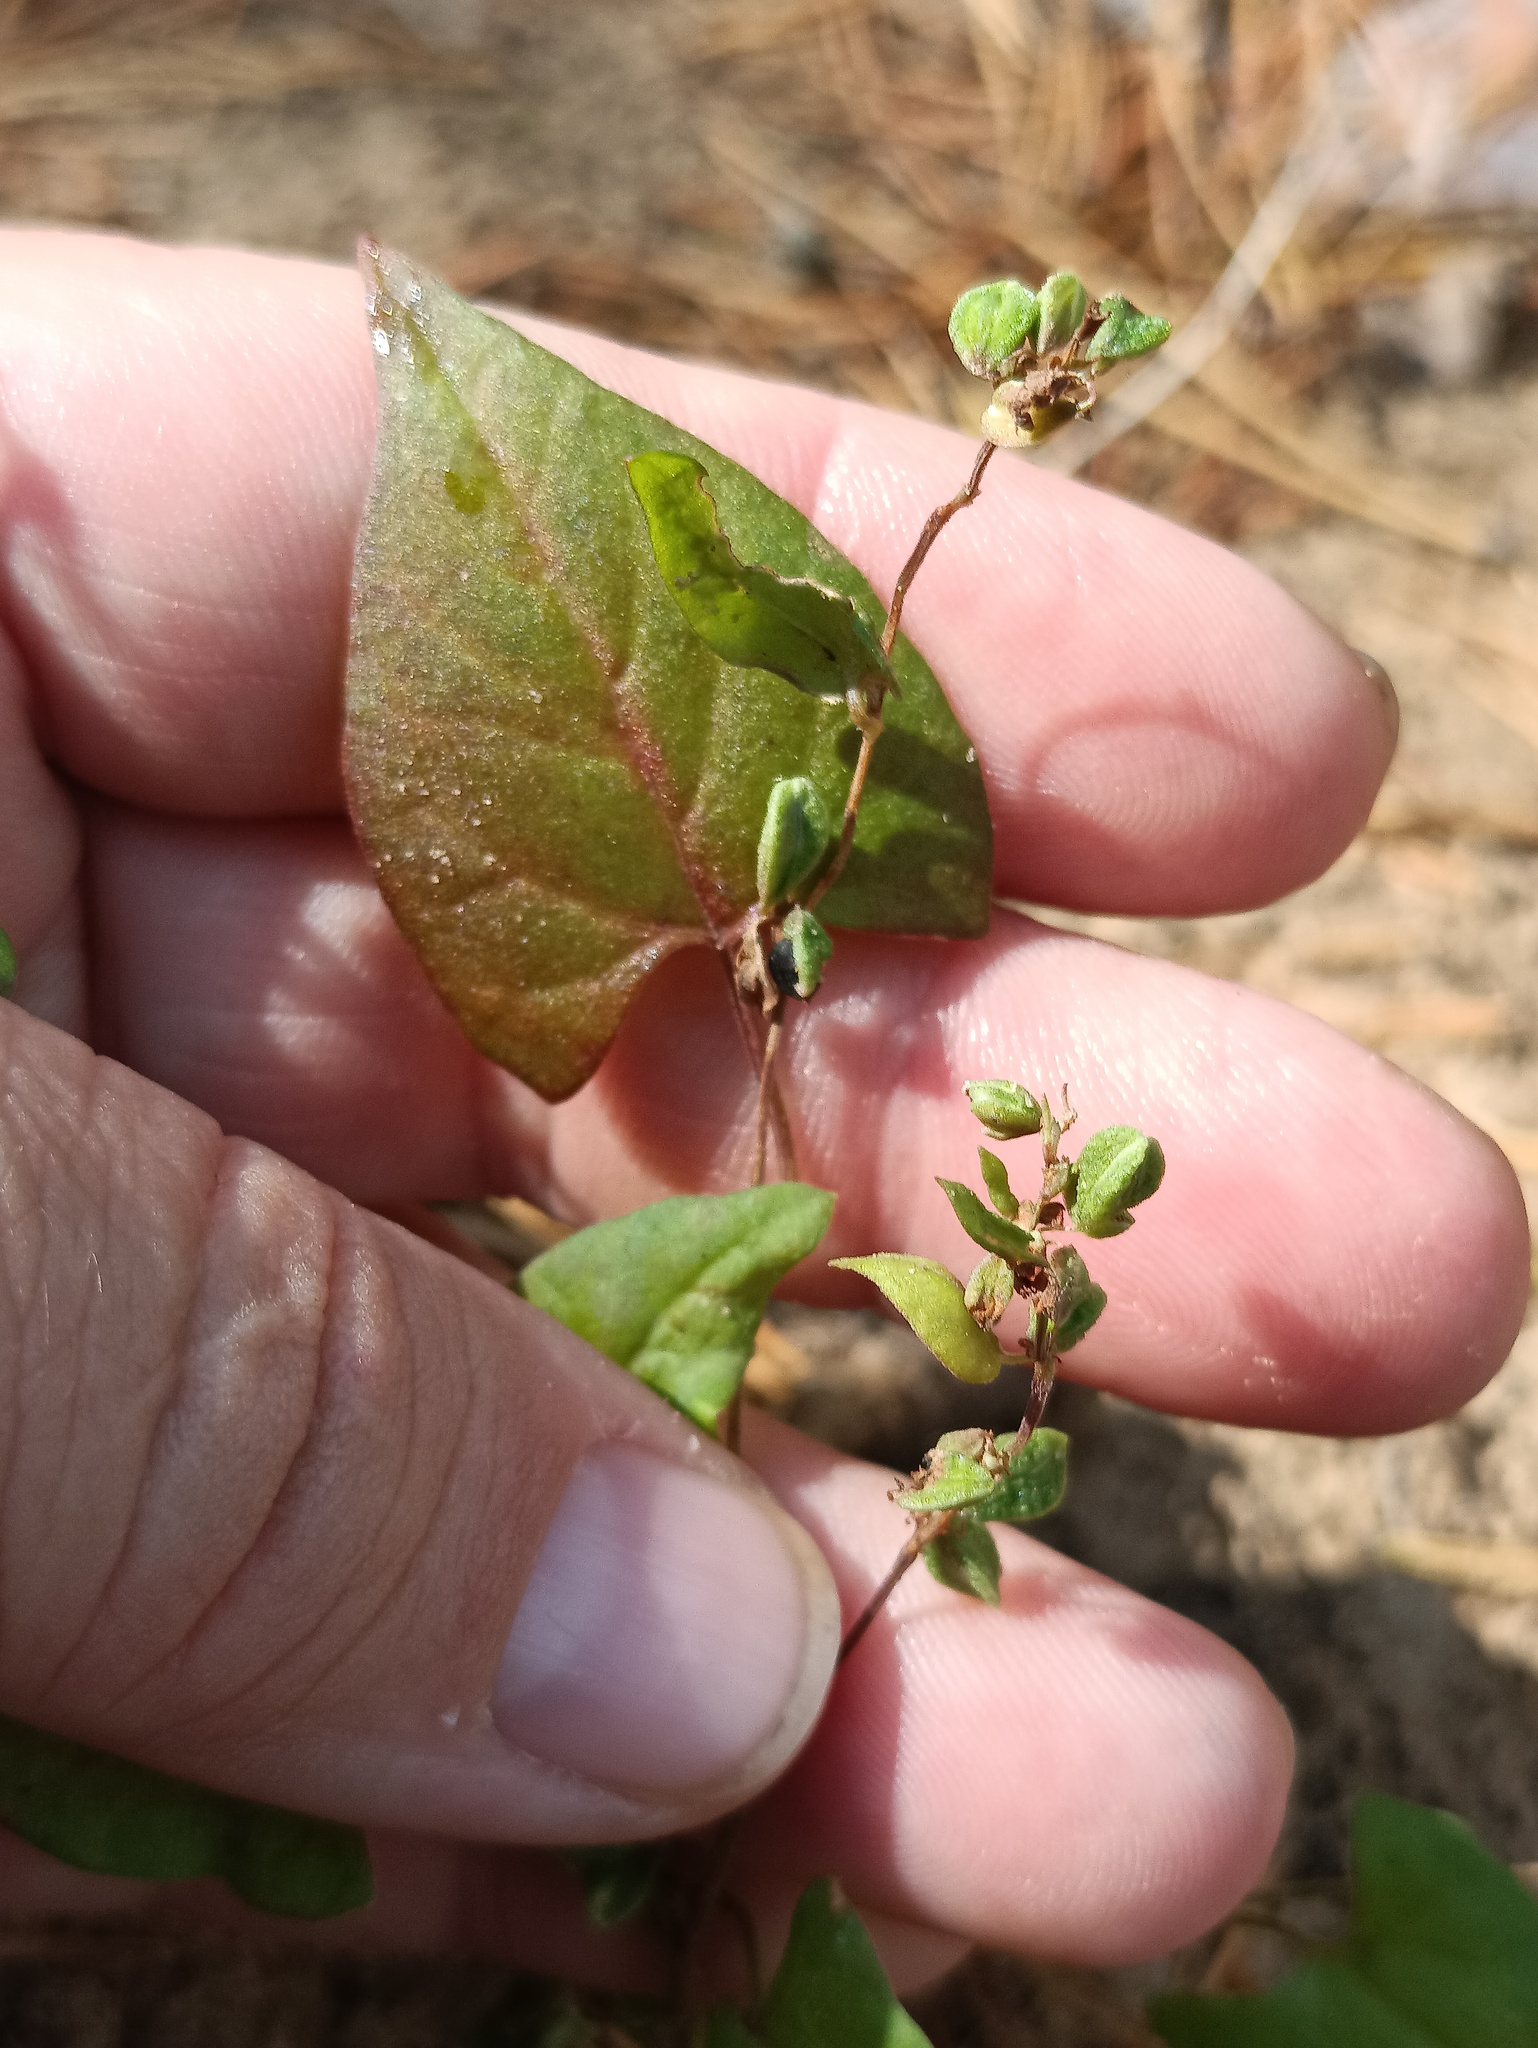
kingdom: Plantae
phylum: Tracheophyta
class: Magnoliopsida
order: Caryophyllales
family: Polygonaceae
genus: Fallopia
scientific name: Fallopia convolvulus
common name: Black bindweed
